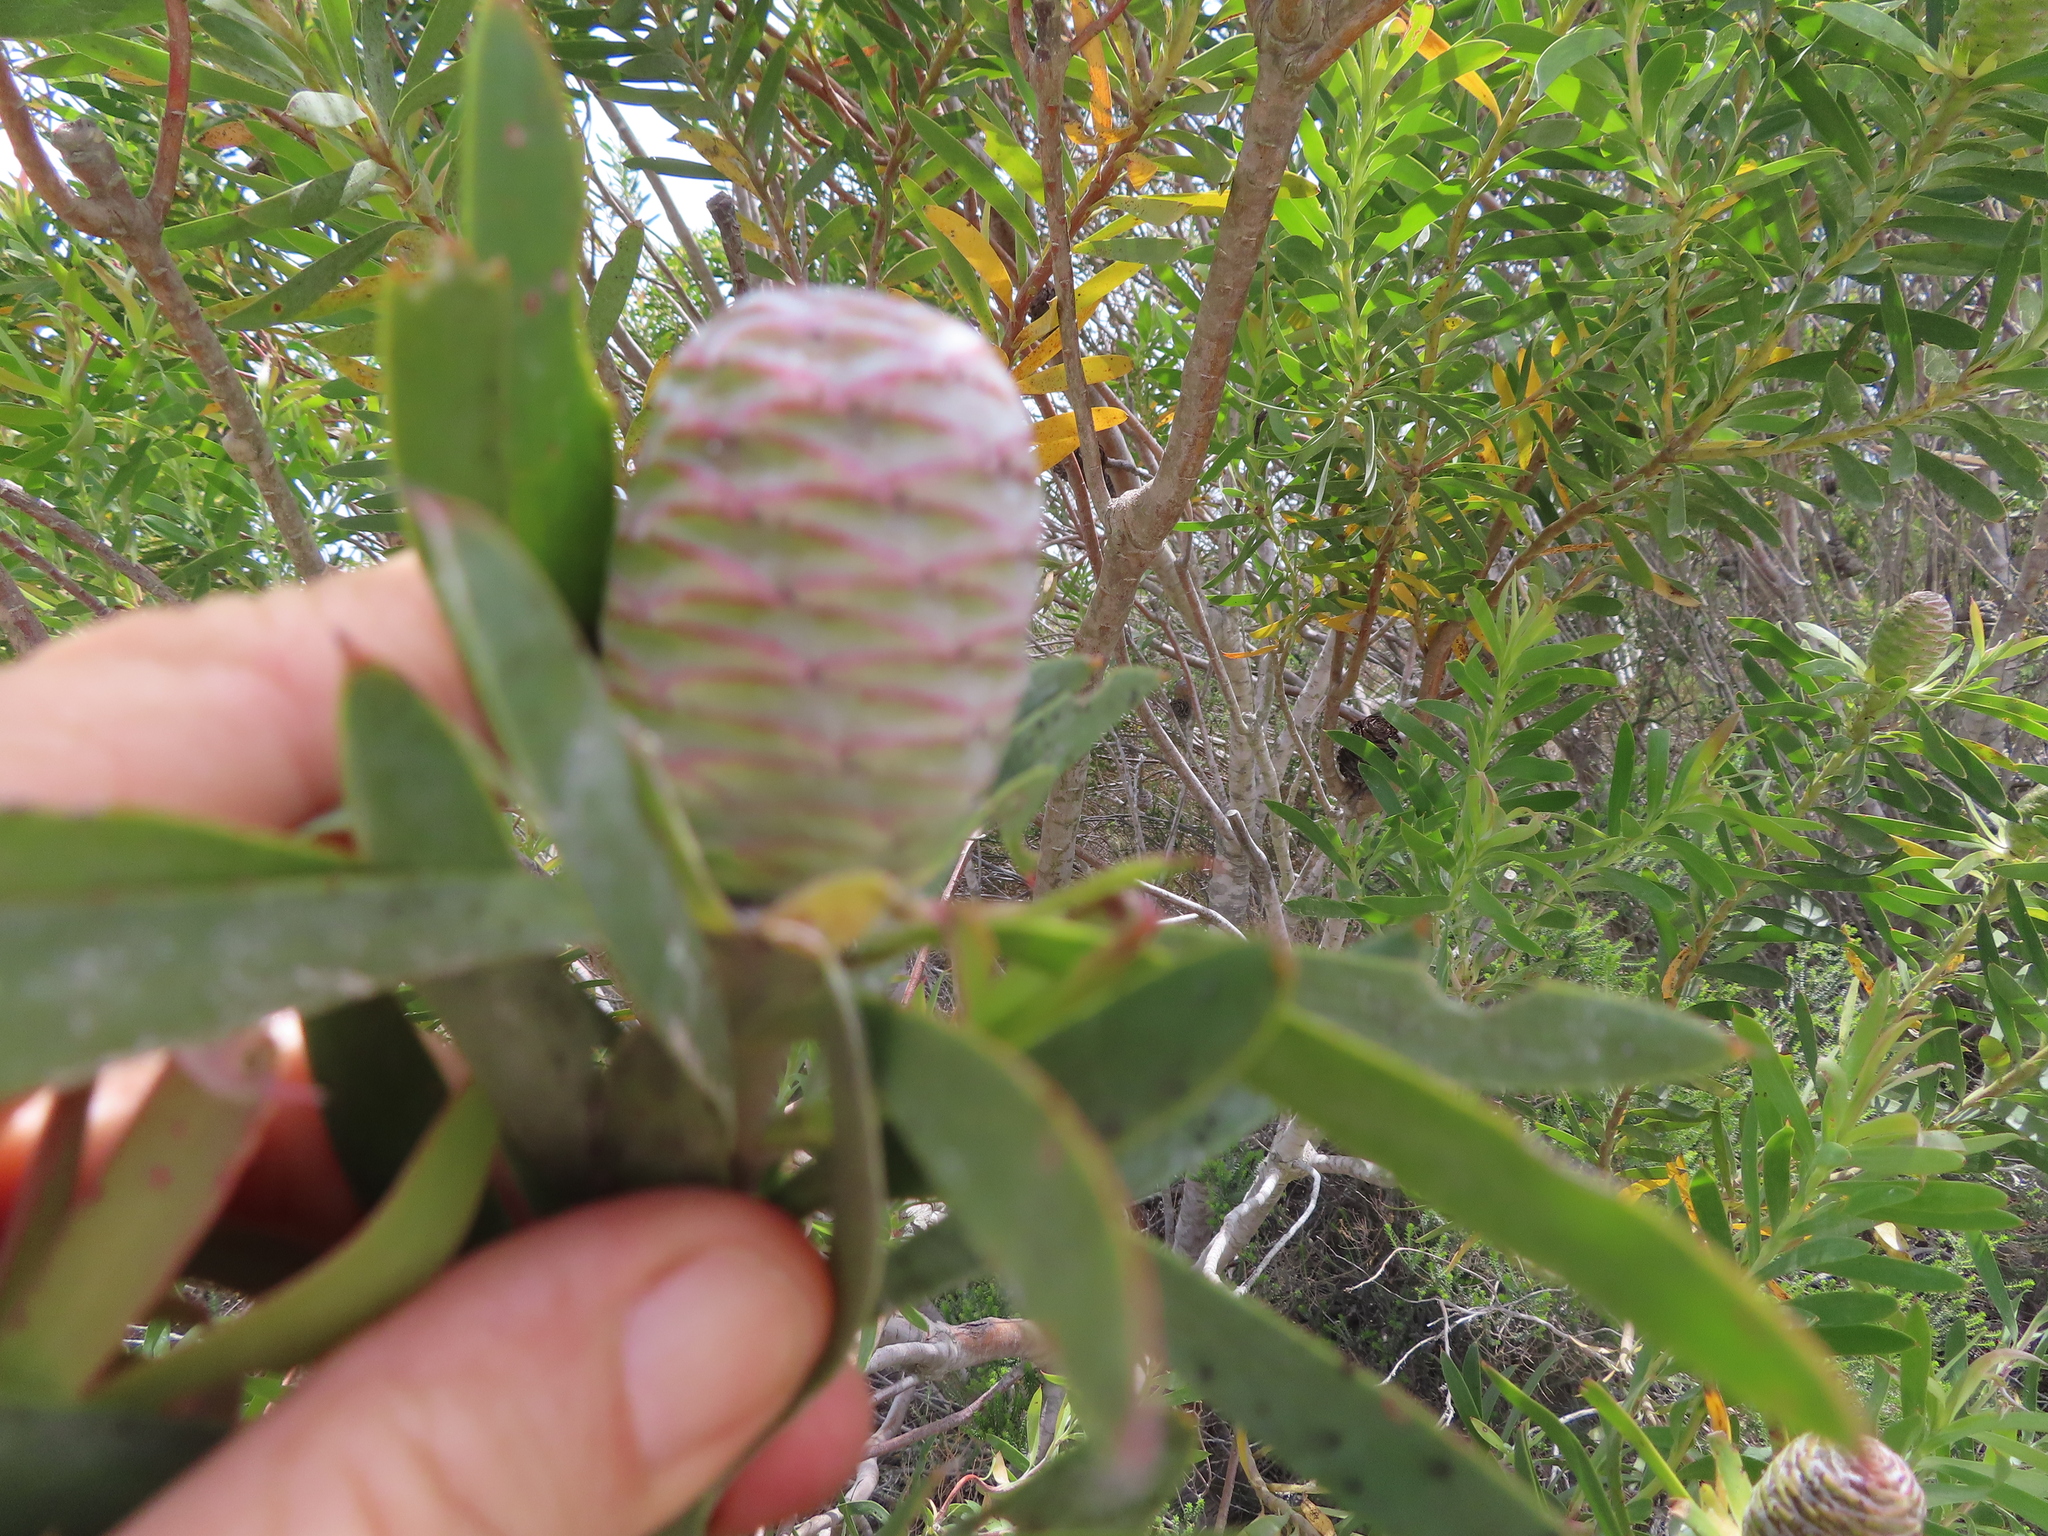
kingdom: Plantae
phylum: Tracheophyta
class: Magnoliopsida
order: Proteales
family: Proteaceae
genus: Leucadendron
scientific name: Leucadendron coniferum
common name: Dune conebush
